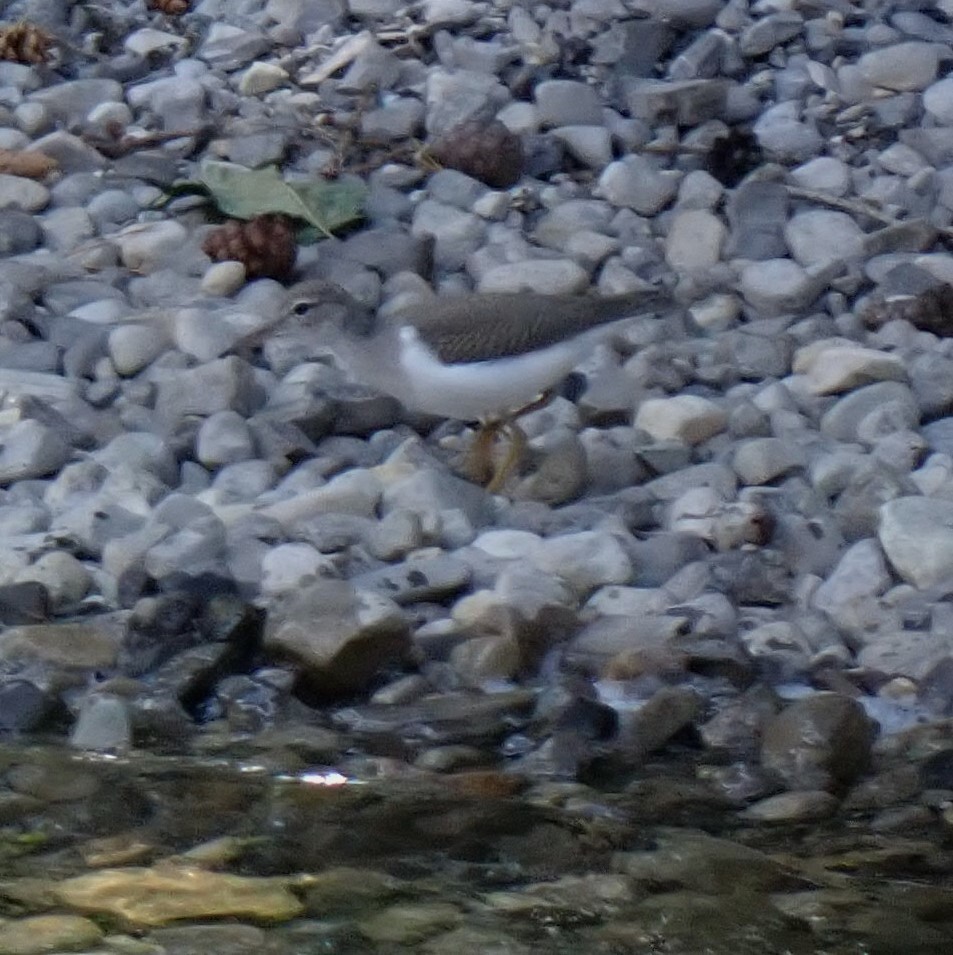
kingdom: Animalia
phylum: Chordata
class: Aves
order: Charadriiformes
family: Scolopacidae
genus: Actitis
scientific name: Actitis macularius
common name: Spotted sandpiper
